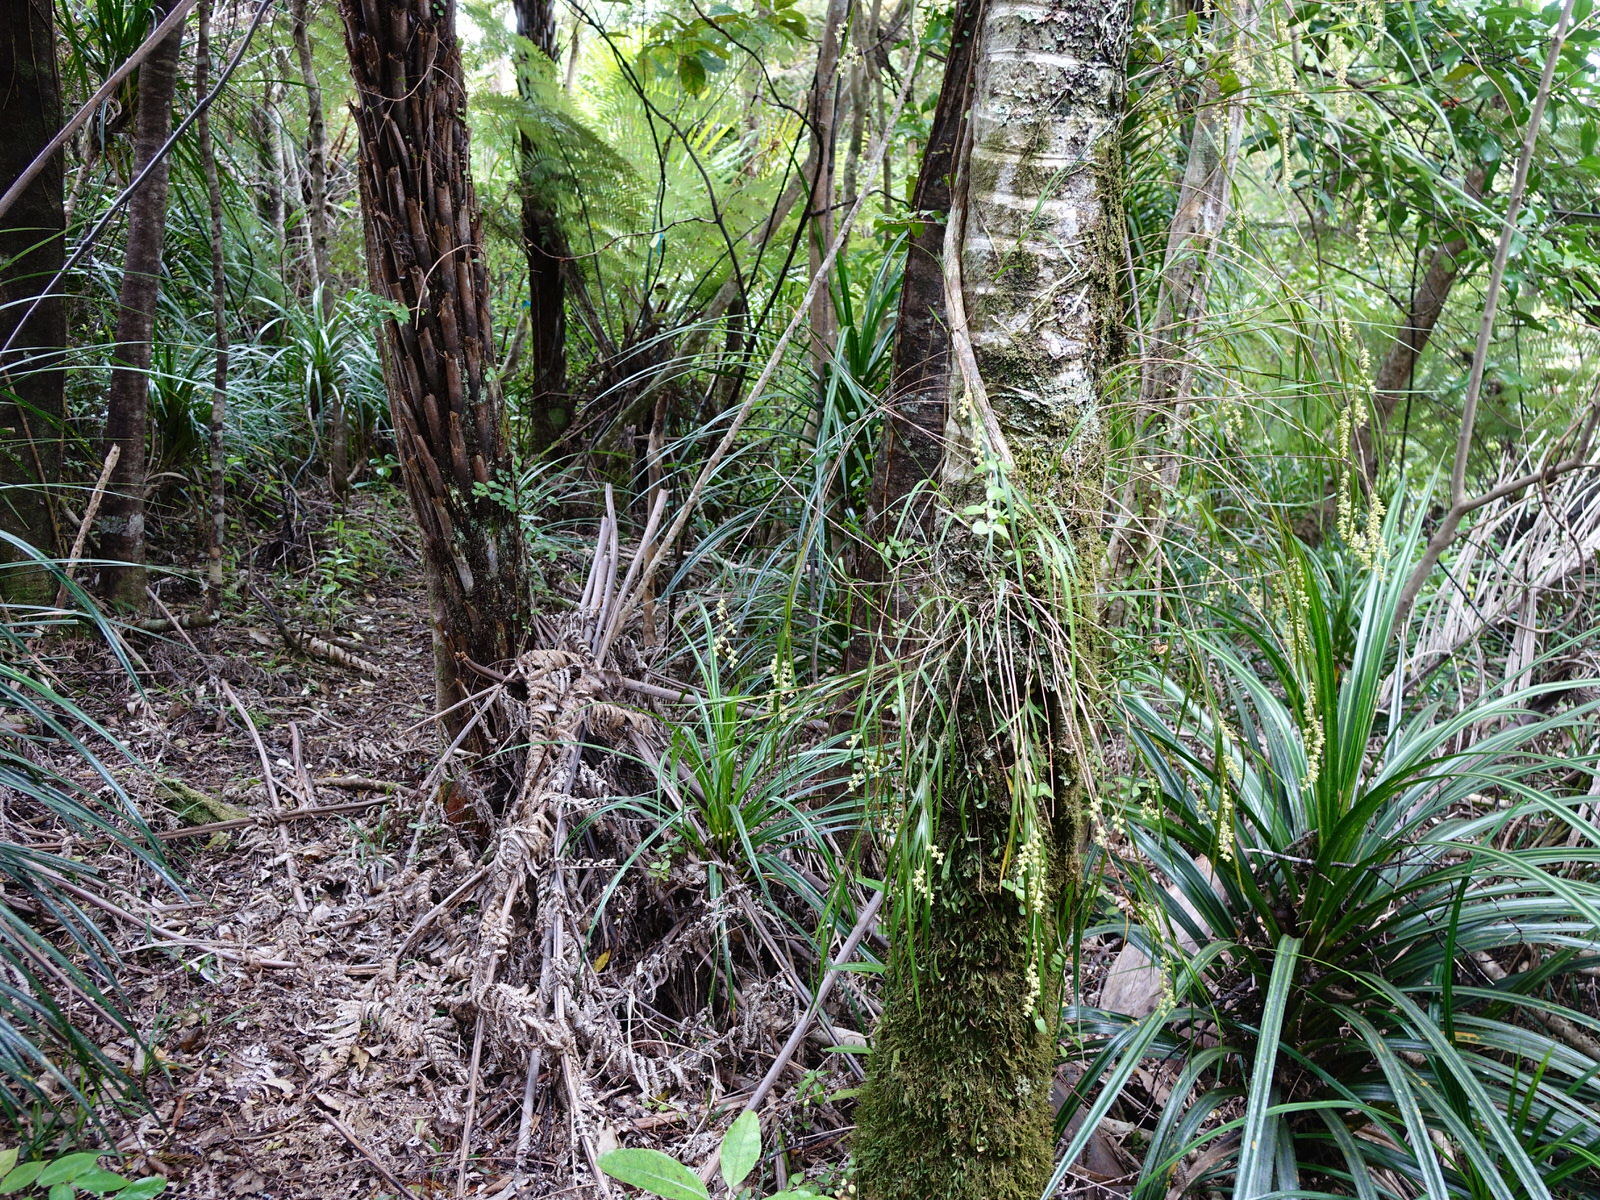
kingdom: Plantae
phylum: Tracheophyta
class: Liliopsida
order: Asparagales
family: Orchidaceae
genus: Earina
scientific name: Earina mucronata
